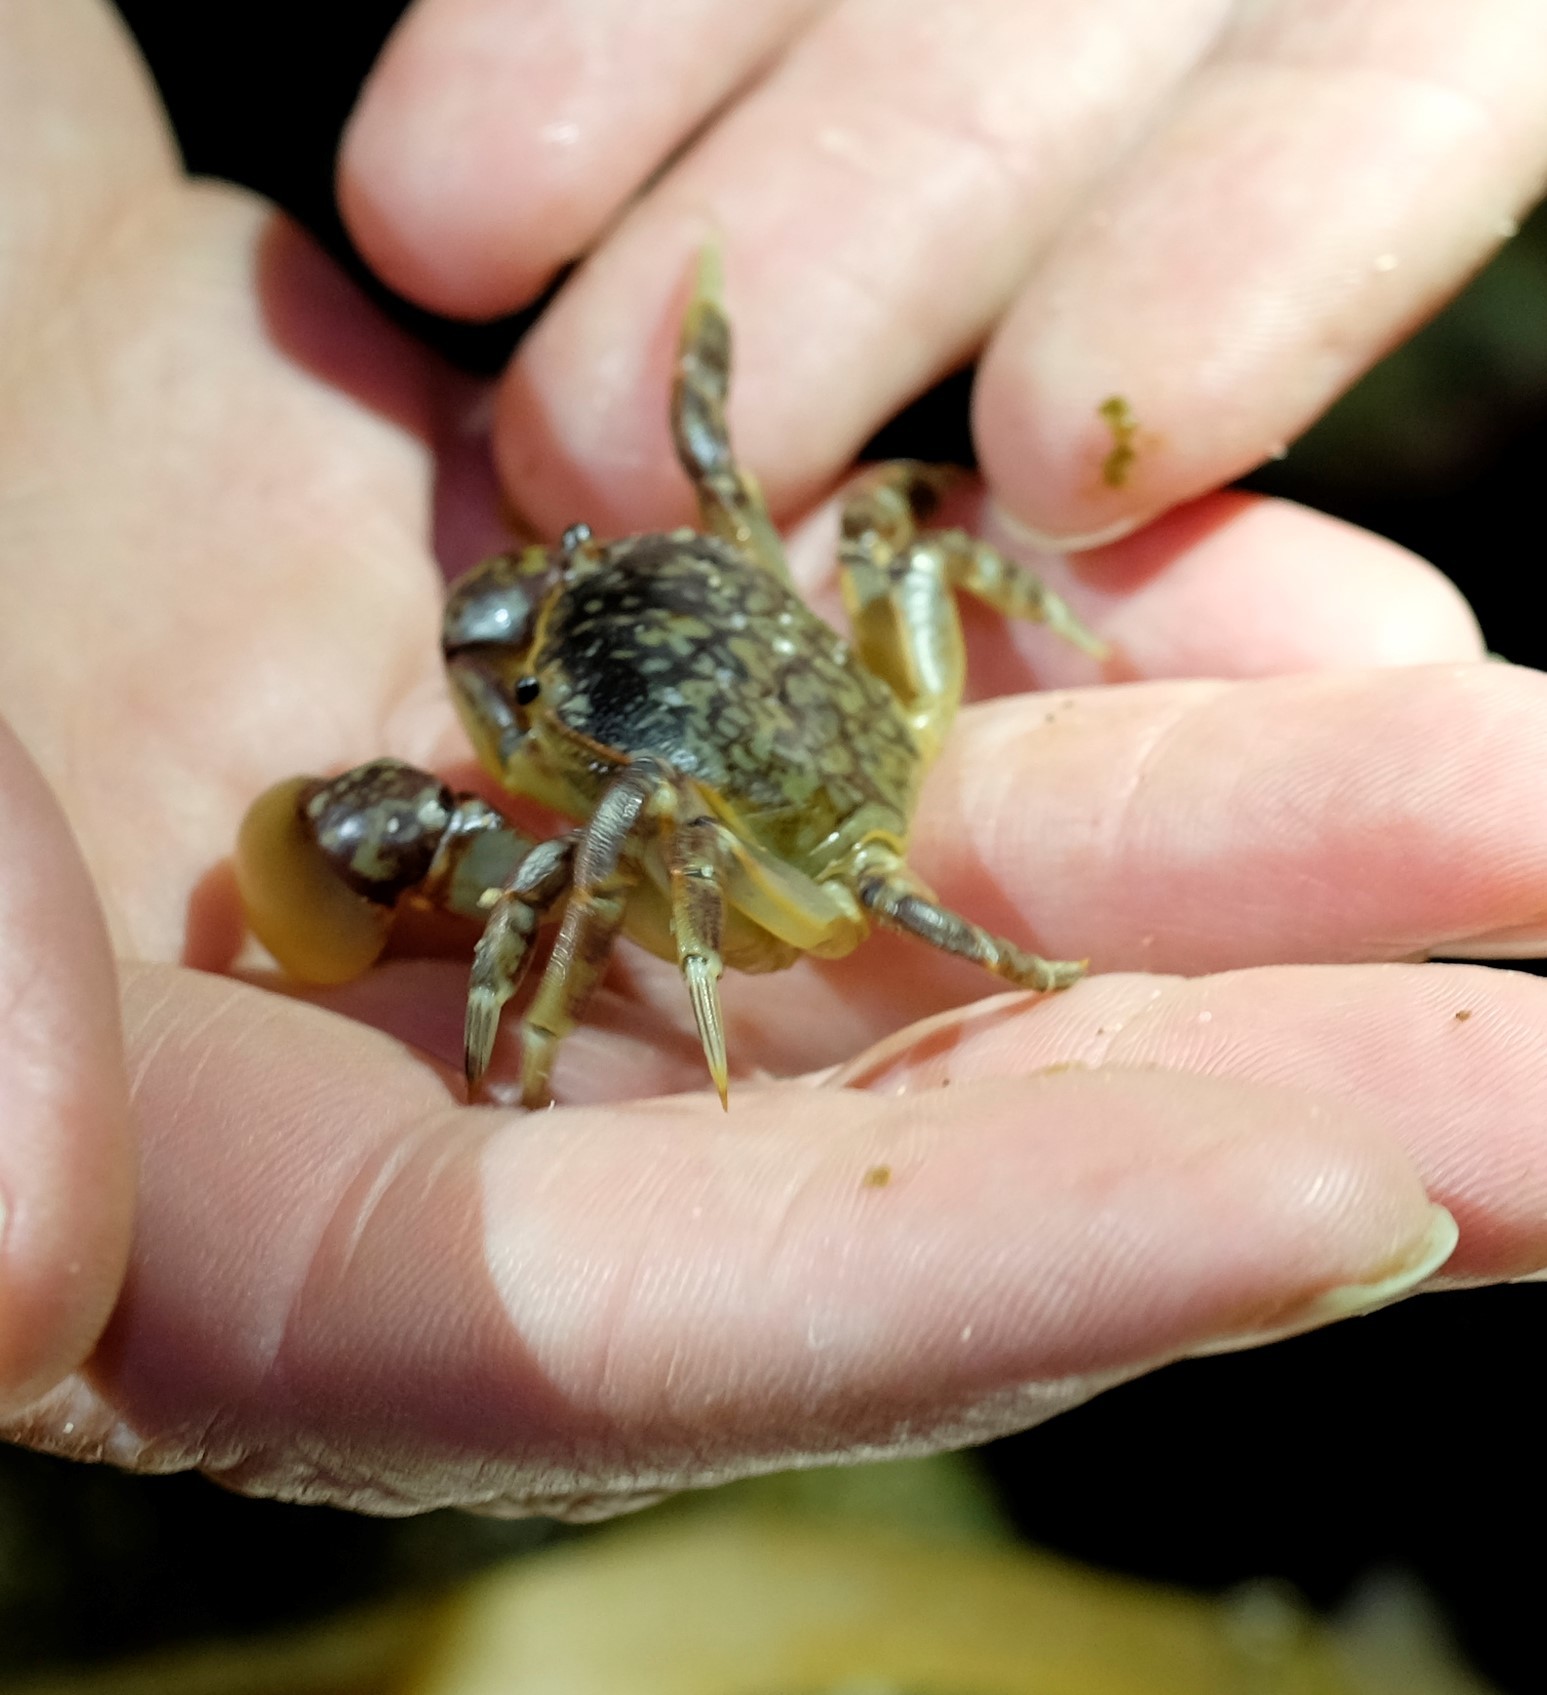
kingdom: Animalia
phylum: Arthropoda
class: Malacostraca
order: Decapoda
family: Varunidae
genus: Cyclograpsus
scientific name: Cyclograpsus granulosus
